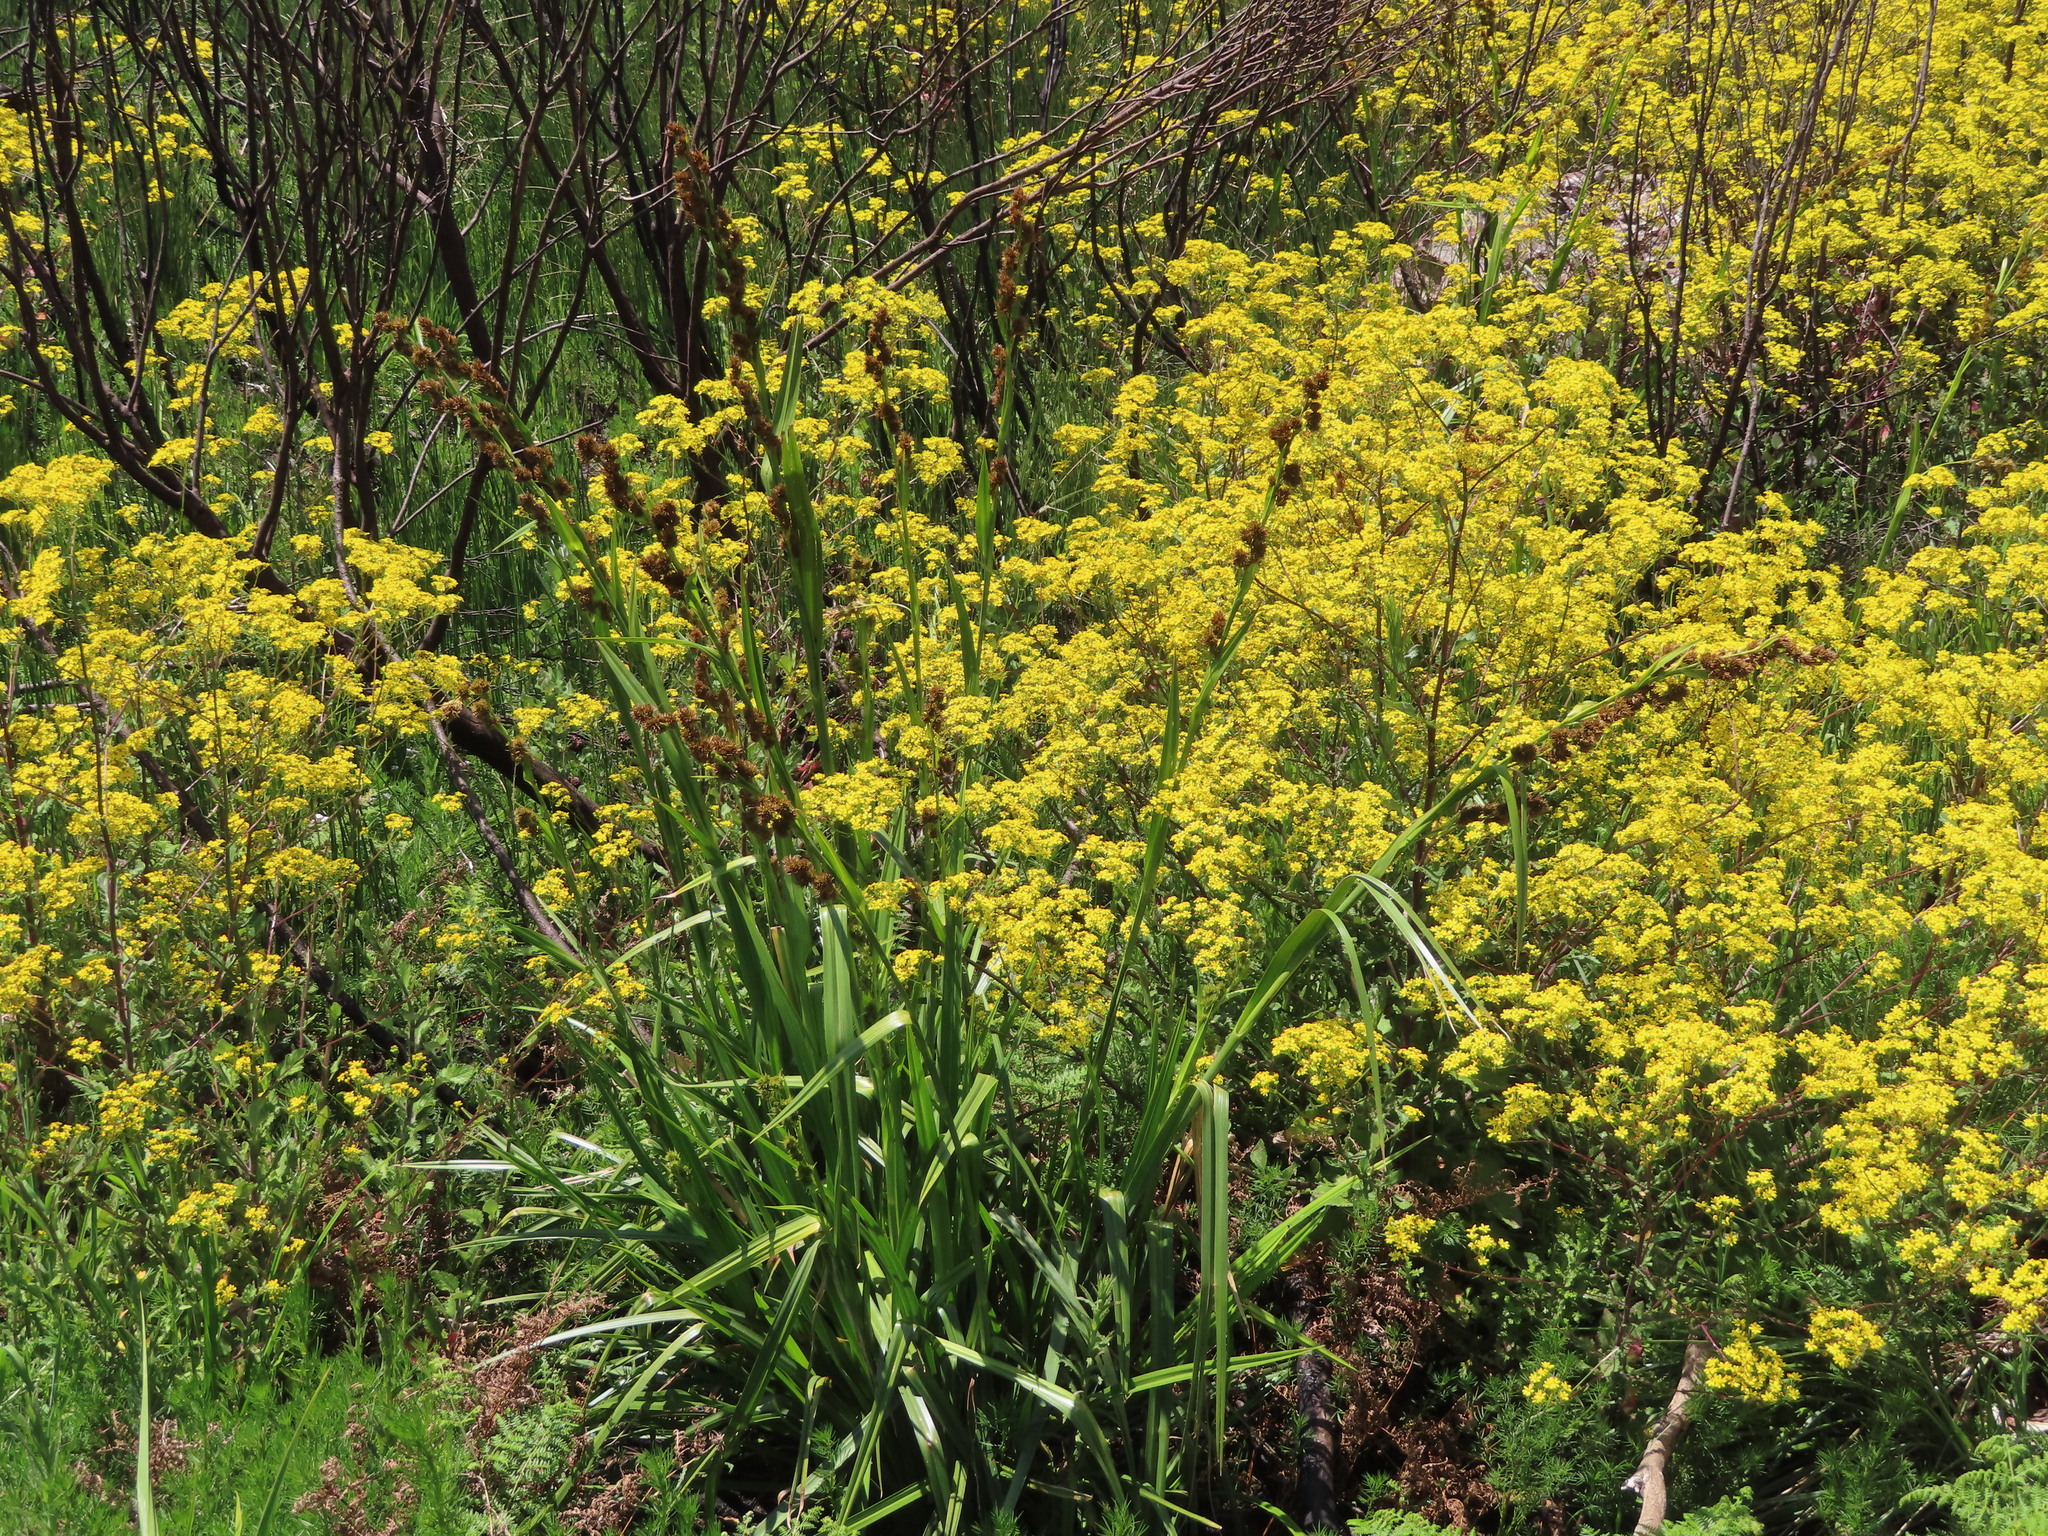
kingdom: Plantae
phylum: Tracheophyta
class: Liliopsida
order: Asparagales
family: Iridaceae
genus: Moraea
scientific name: Moraea ochroleuca
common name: Red tulp
